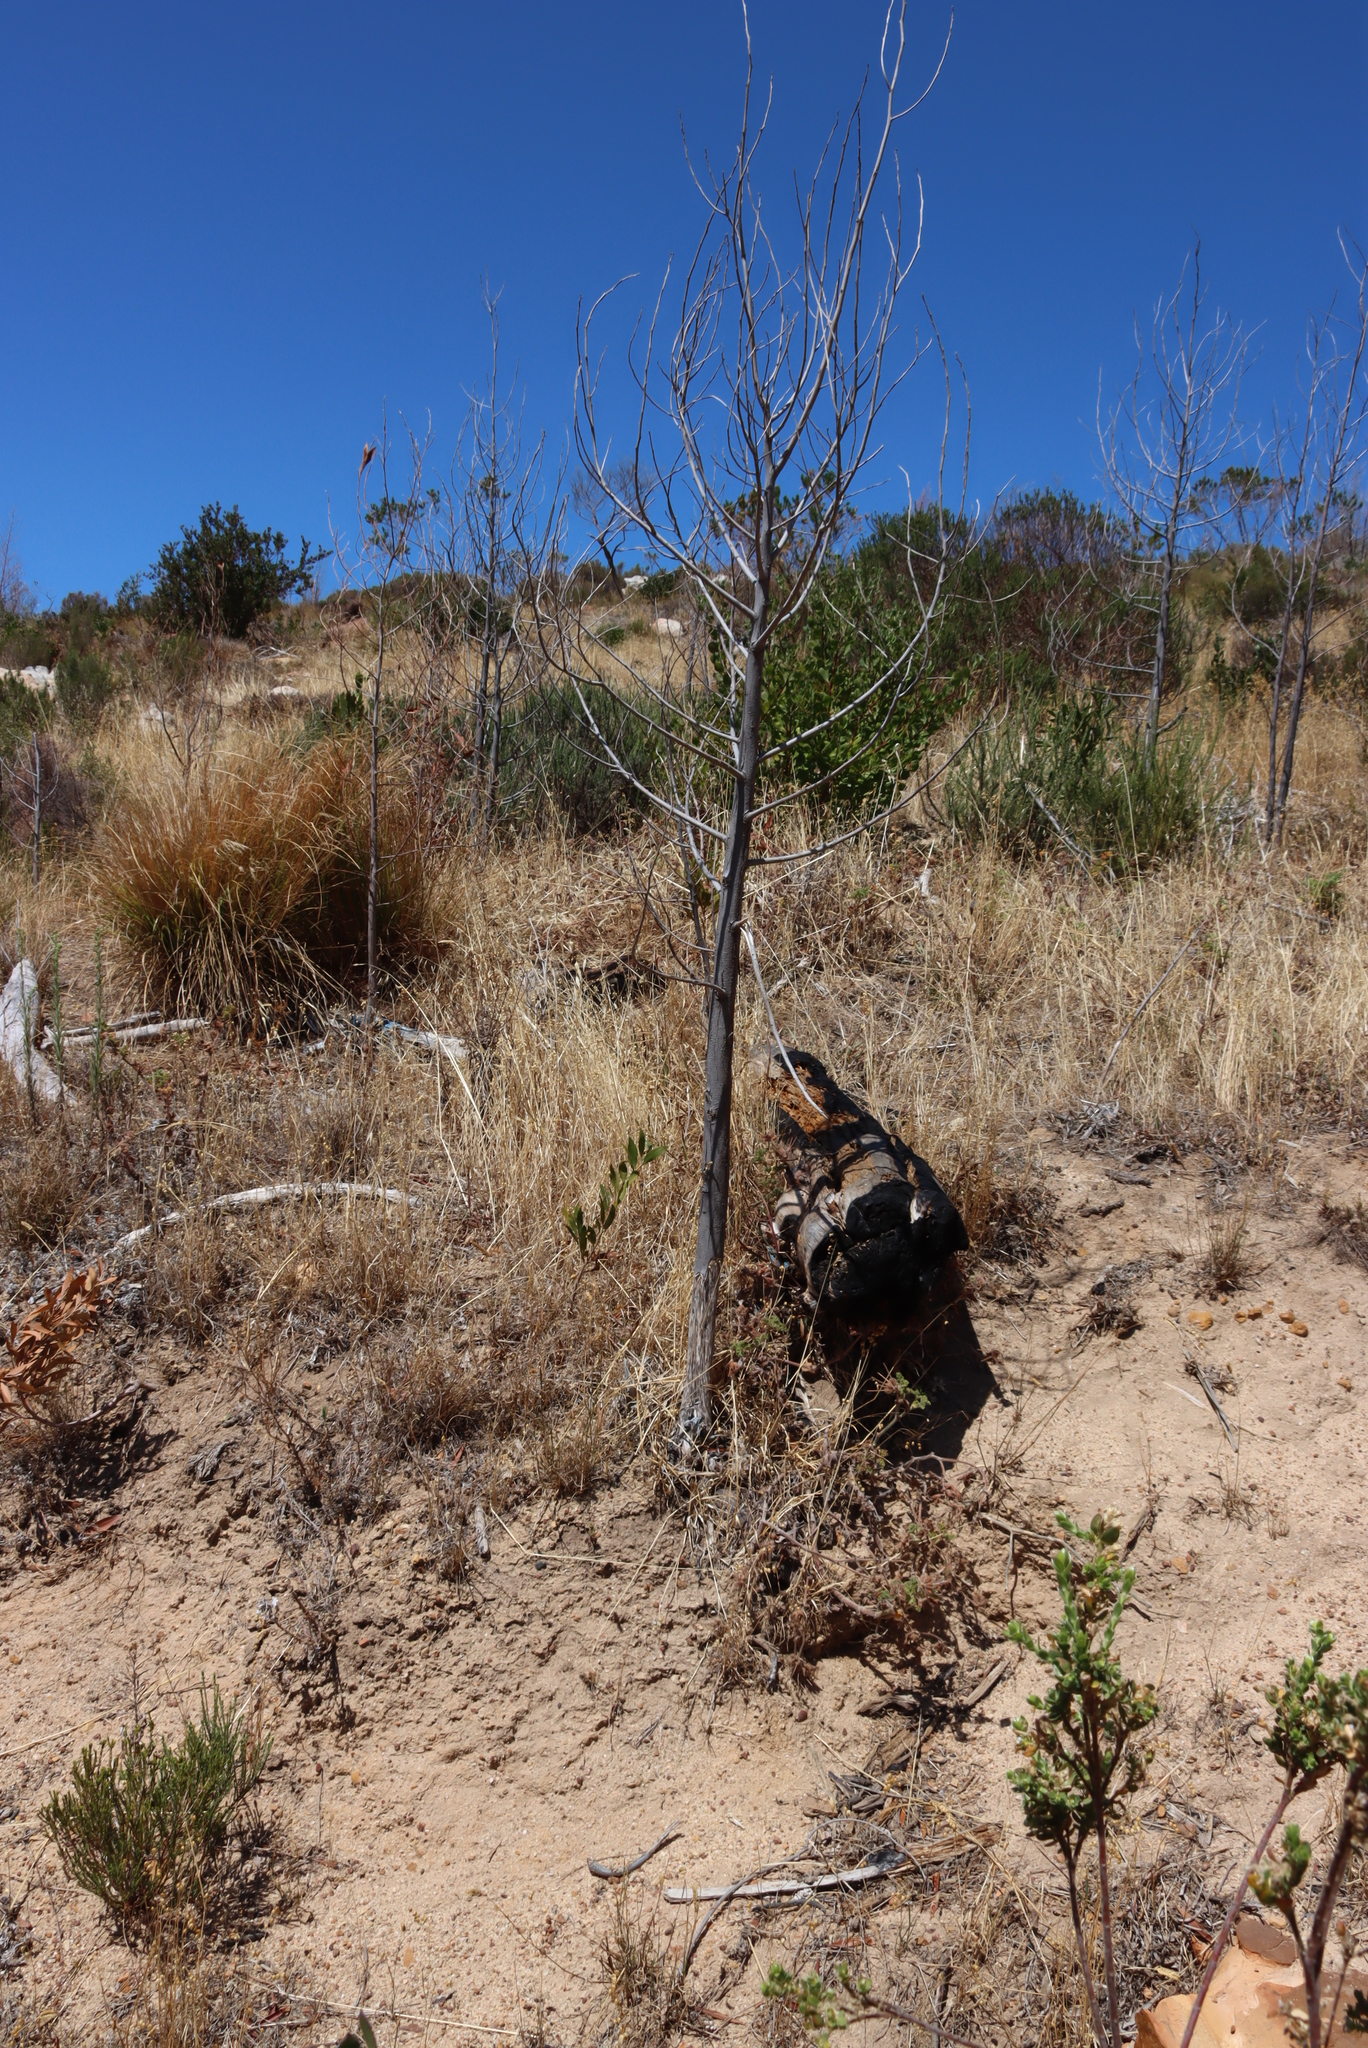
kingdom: Plantae
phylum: Tracheophyta
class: Magnoliopsida
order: Fabales
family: Fabaceae
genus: Acacia
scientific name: Acacia melanoxylon
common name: Blackwood
